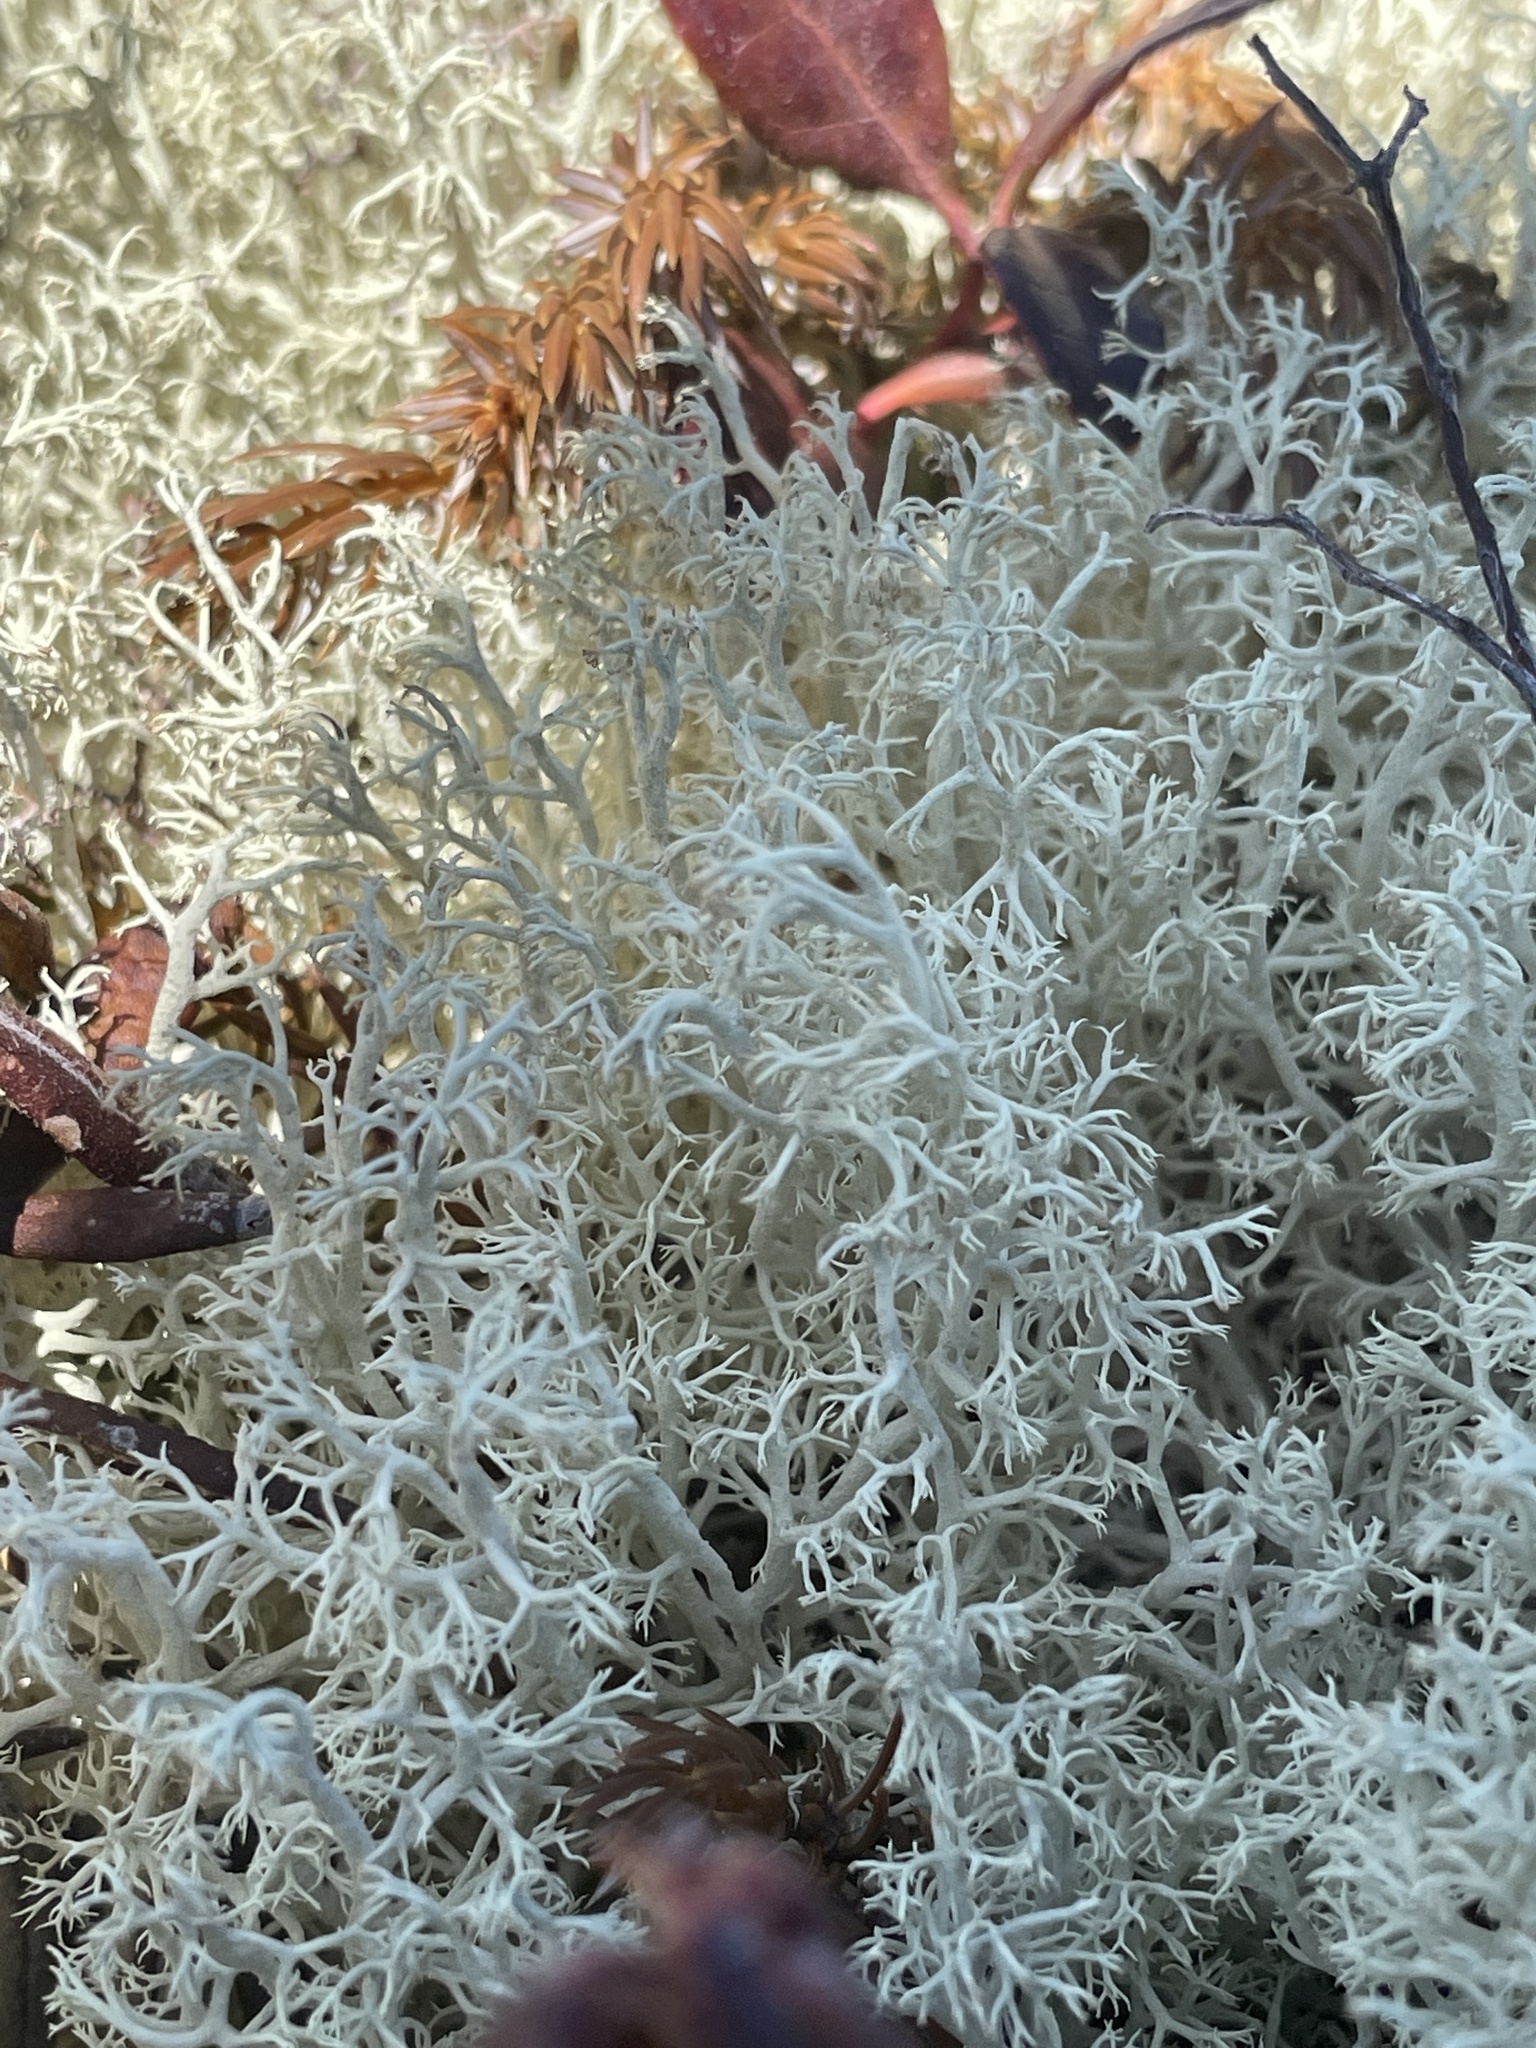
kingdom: Fungi
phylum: Ascomycota
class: Lecanoromycetes
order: Lecanorales
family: Cladoniaceae
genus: Cladonia
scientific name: Cladonia rangiferina
